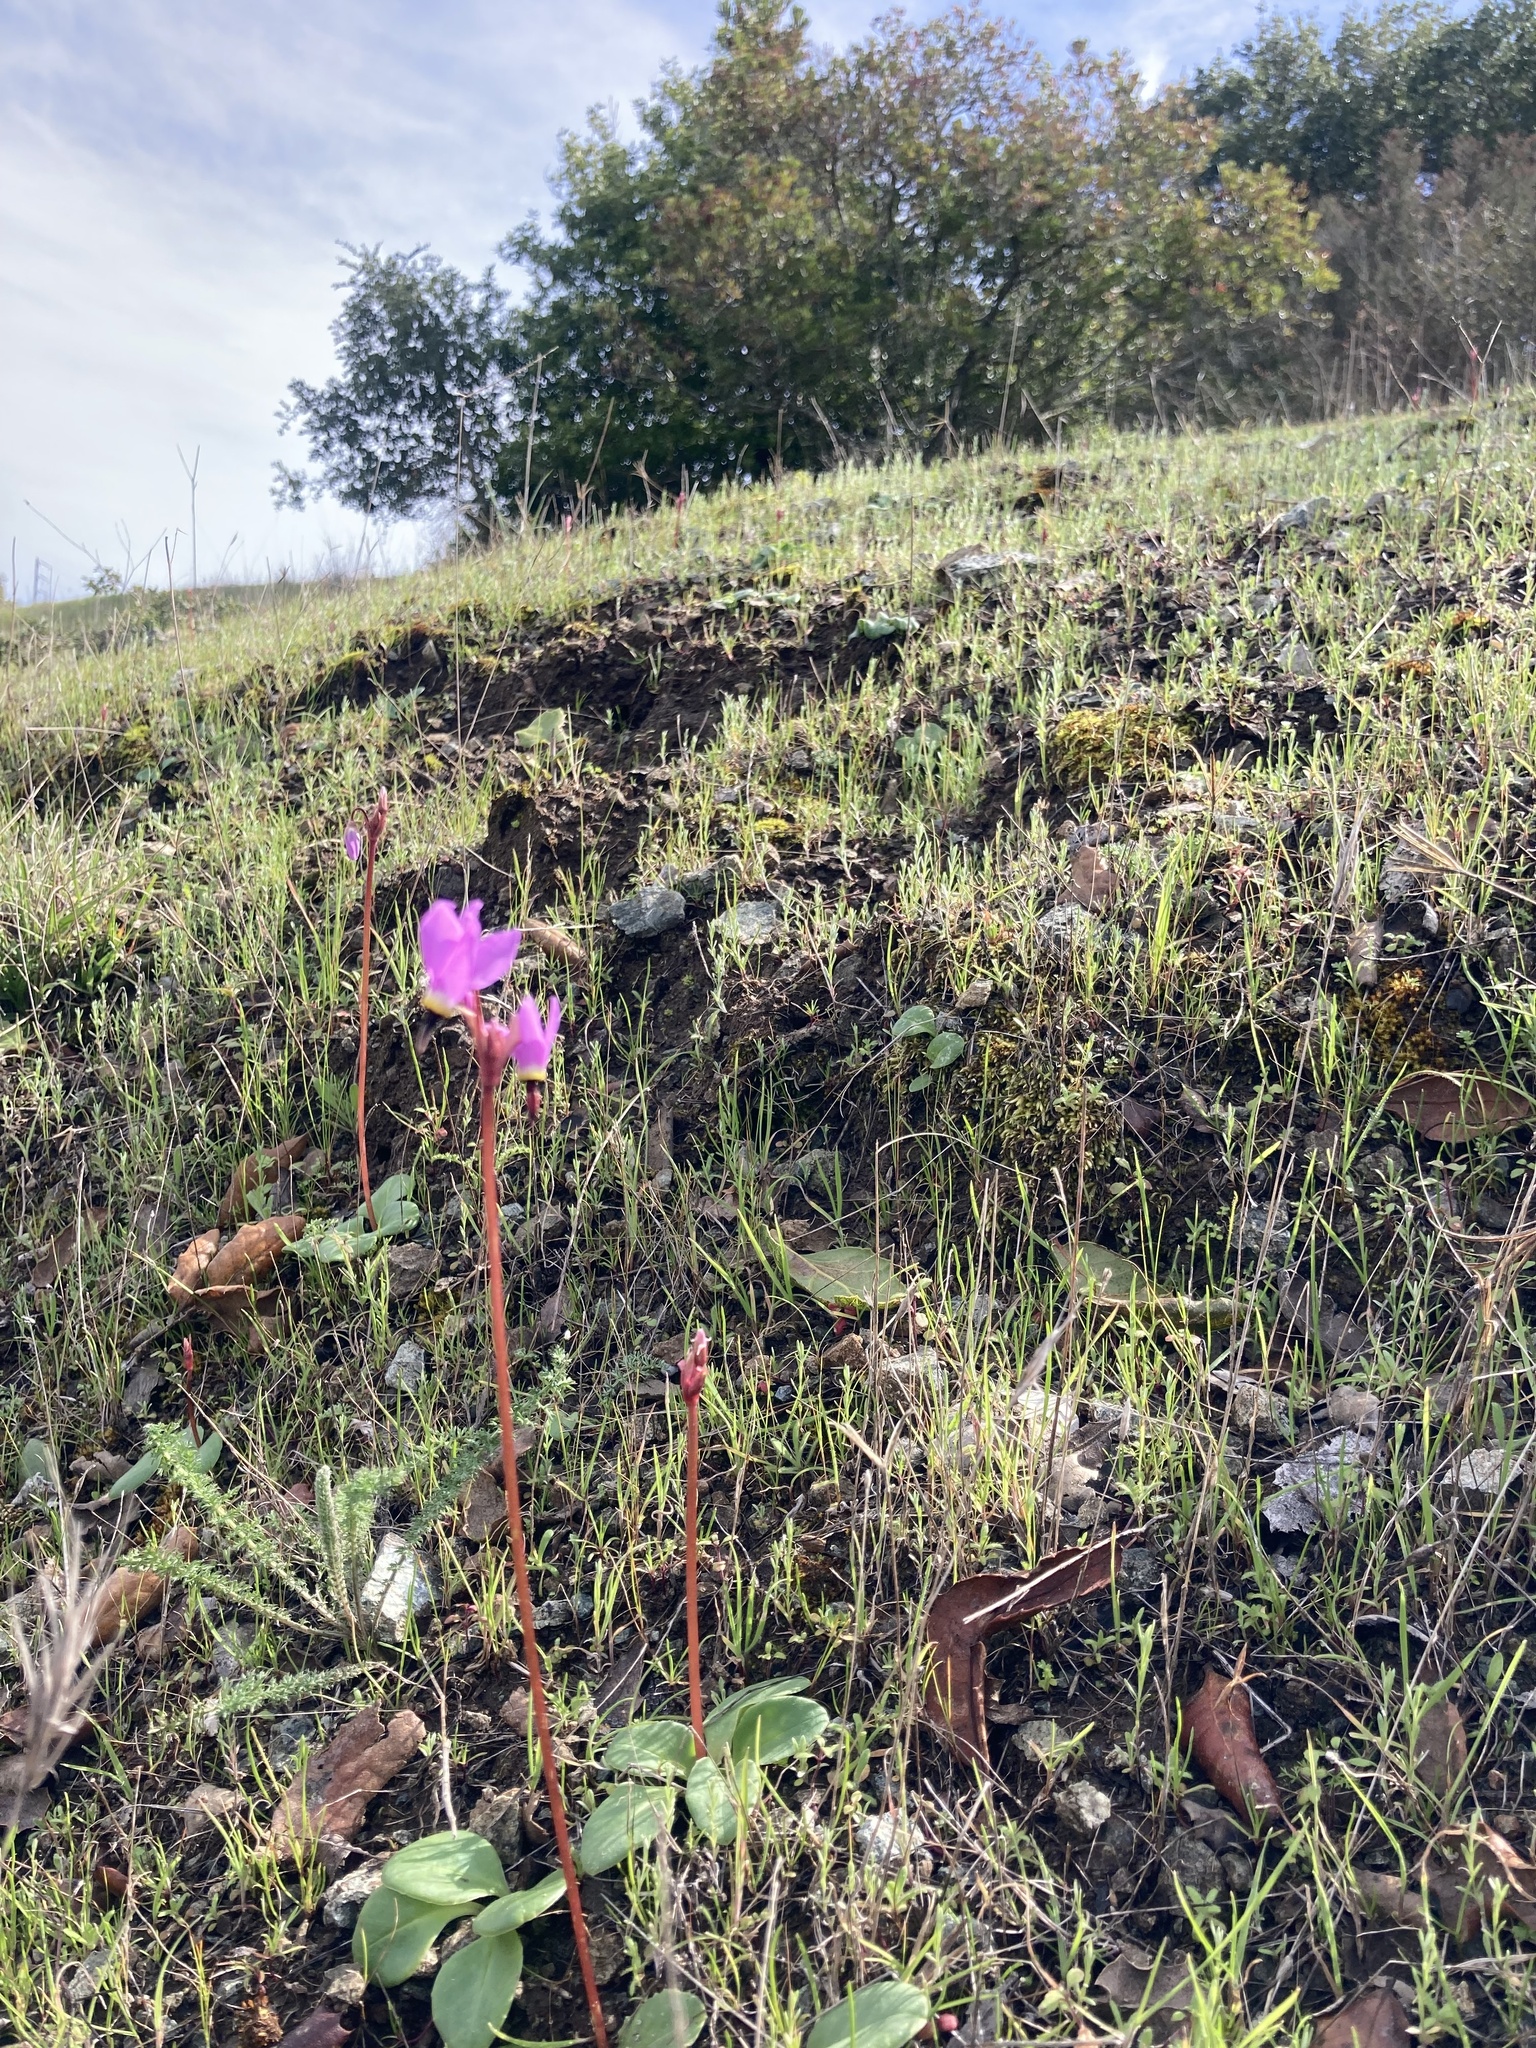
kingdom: Plantae
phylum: Tracheophyta
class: Magnoliopsida
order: Ericales
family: Primulaceae
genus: Dodecatheon
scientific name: Dodecatheon hendersonii
